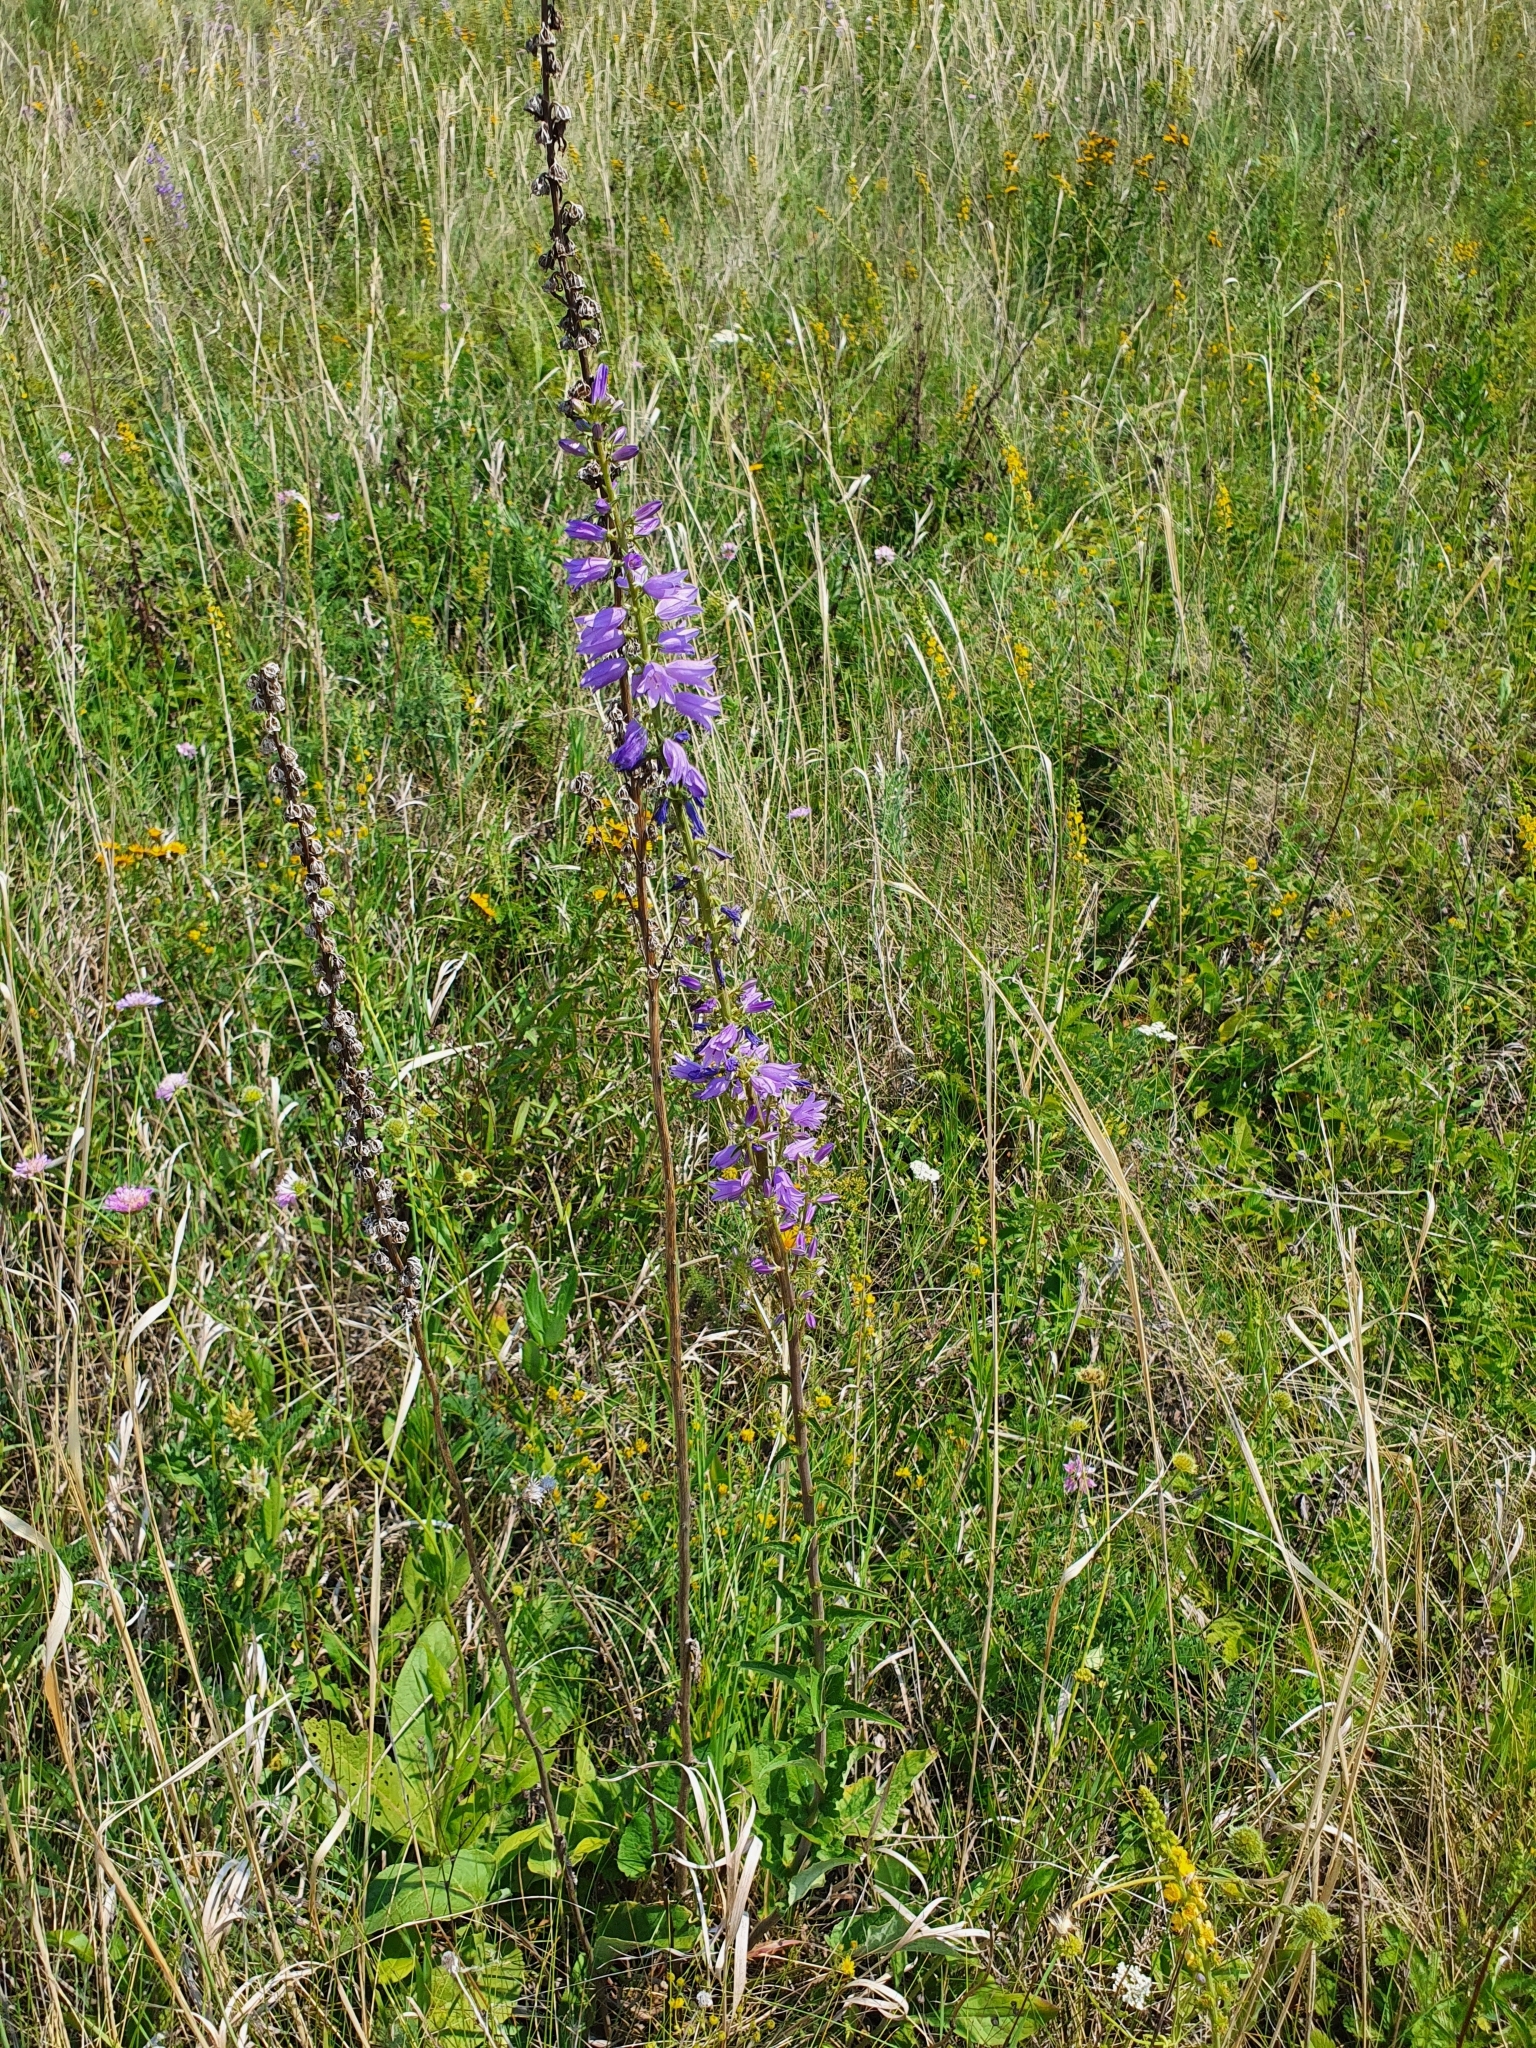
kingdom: Plantae
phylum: Tracheophyta
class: Magnoliopsida
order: Asterales
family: Campanulaceae
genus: Campanula
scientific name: Campanula rapunculoides
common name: Creeping bellflower
